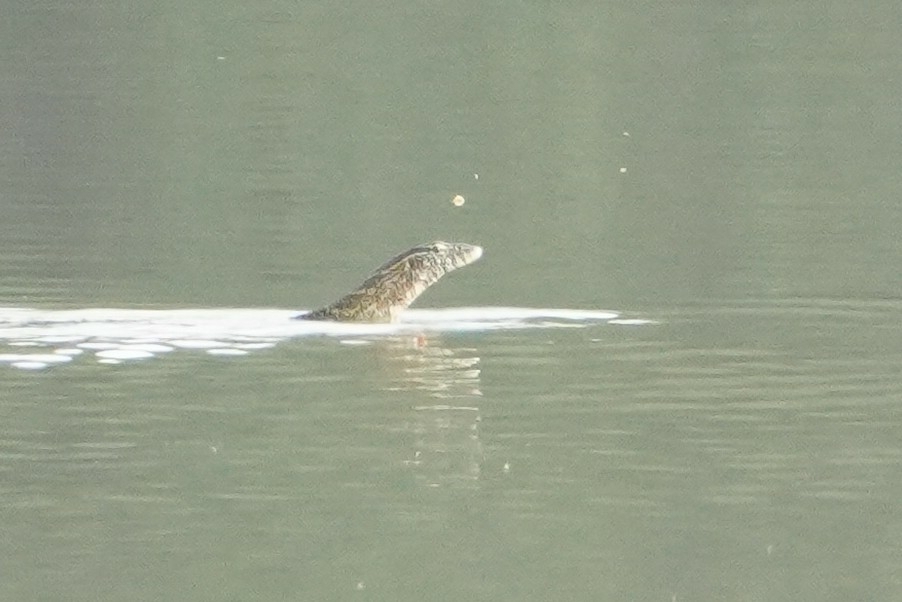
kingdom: Animalia
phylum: Chordata
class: Squamata
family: Varanidae
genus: Varanus
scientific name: Varanus niloticus
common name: Nile monitor
